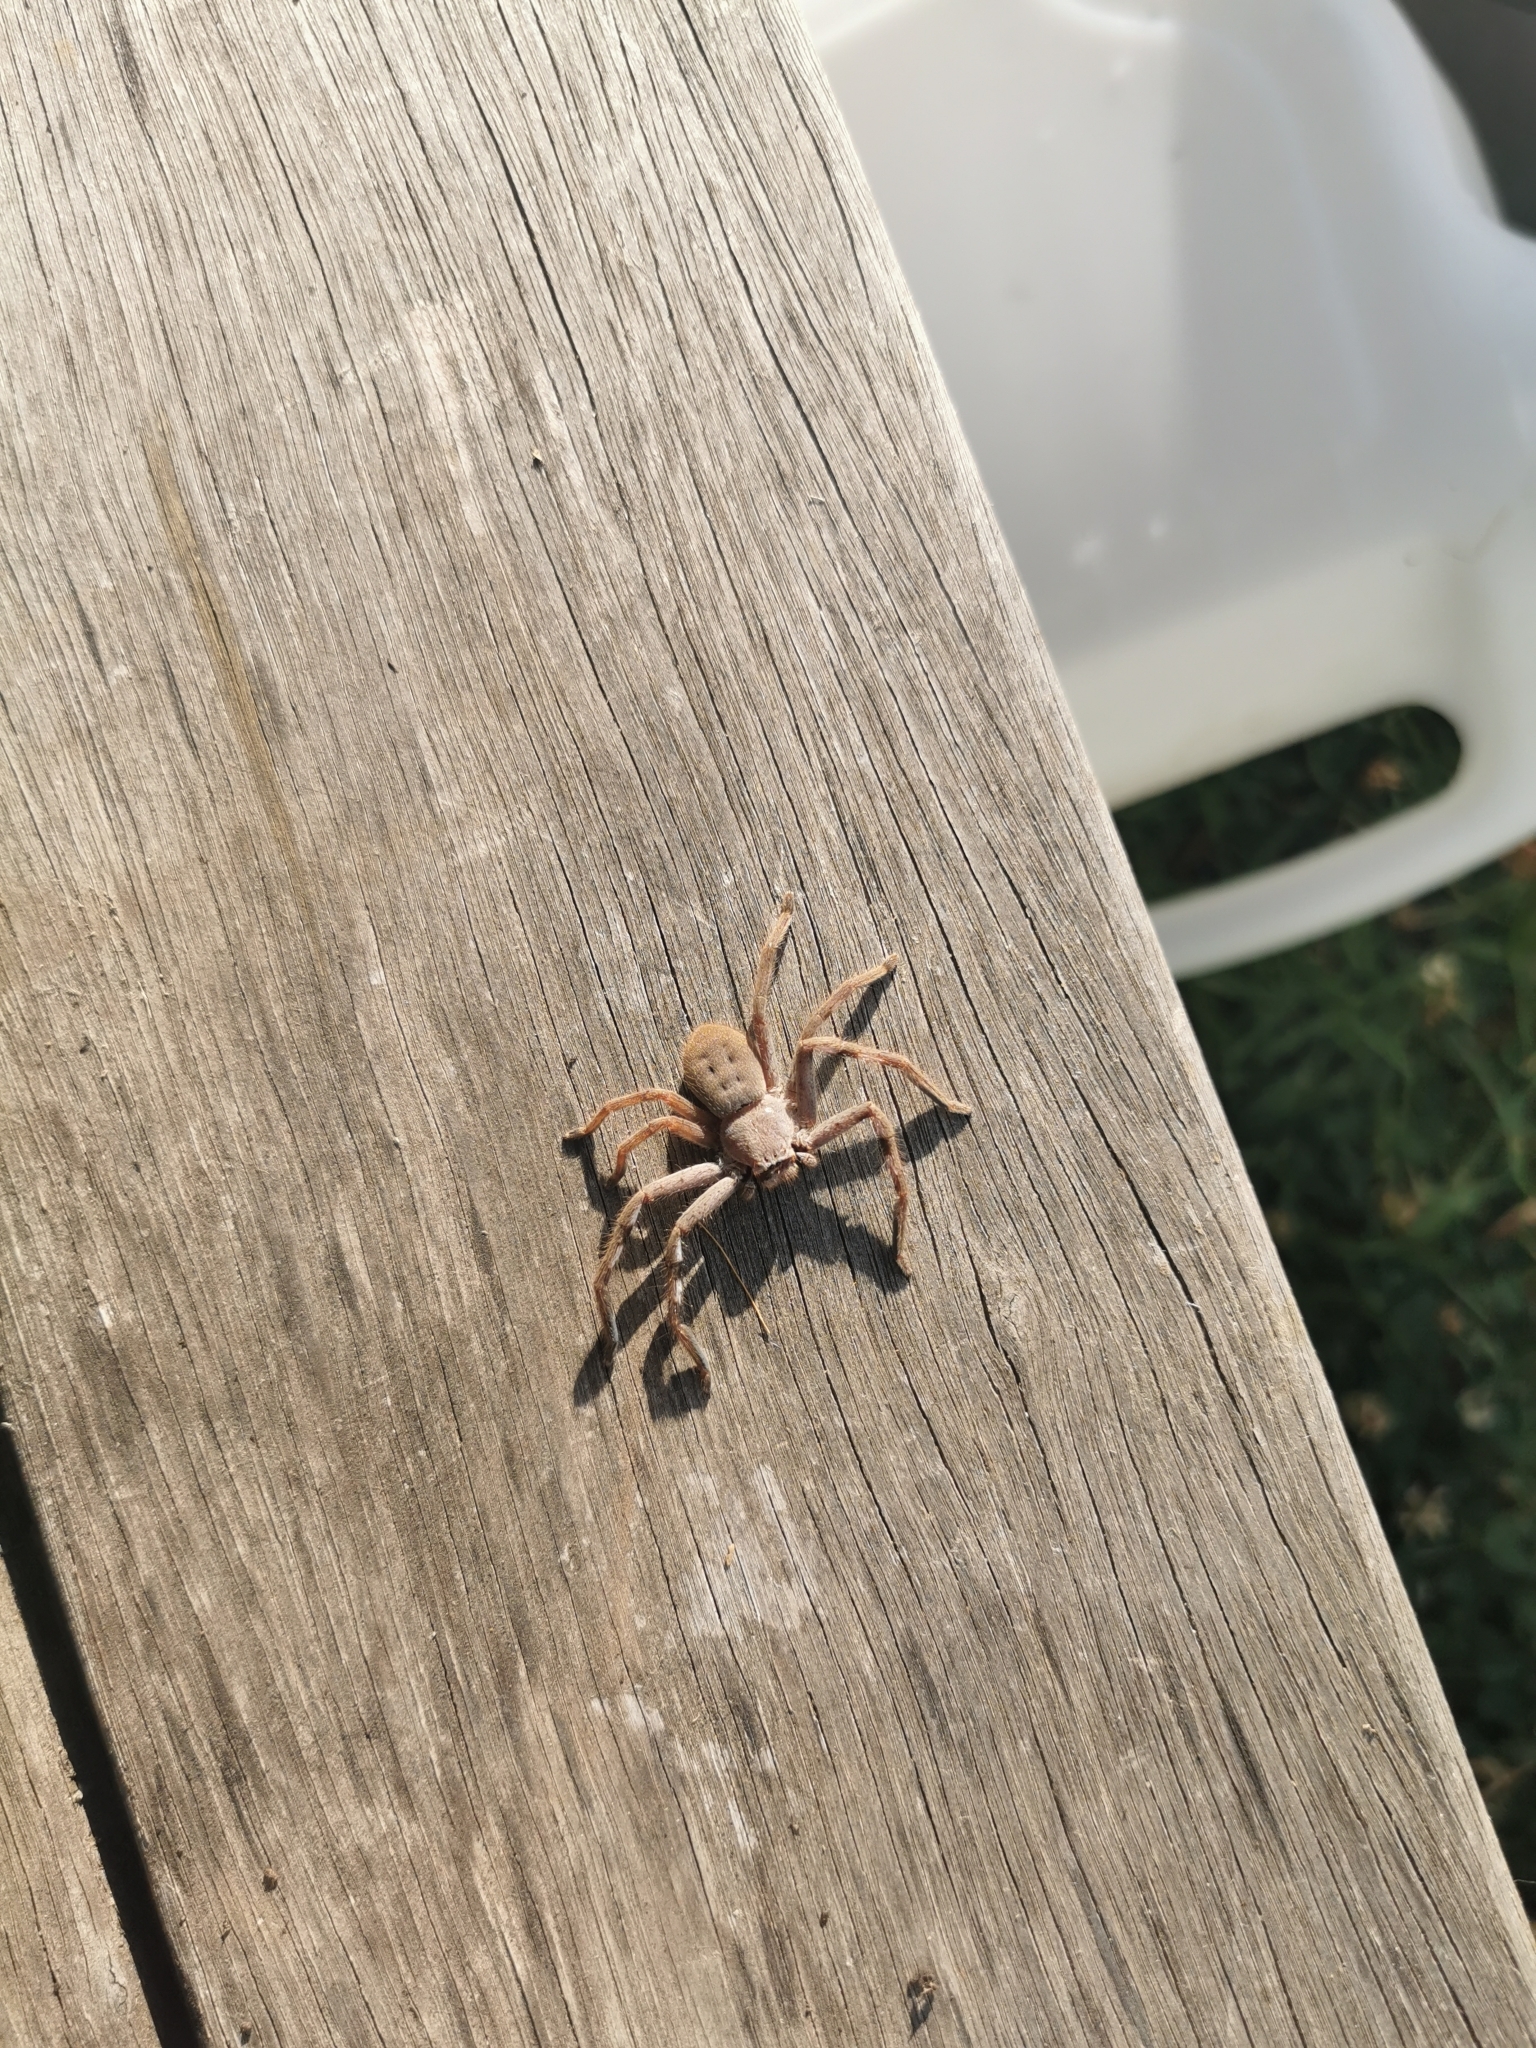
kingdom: Animalia
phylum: Arthropoda
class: Arachnida
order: Araneae
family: Sparassidae
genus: Isopedella
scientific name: Isopedella frenchi
